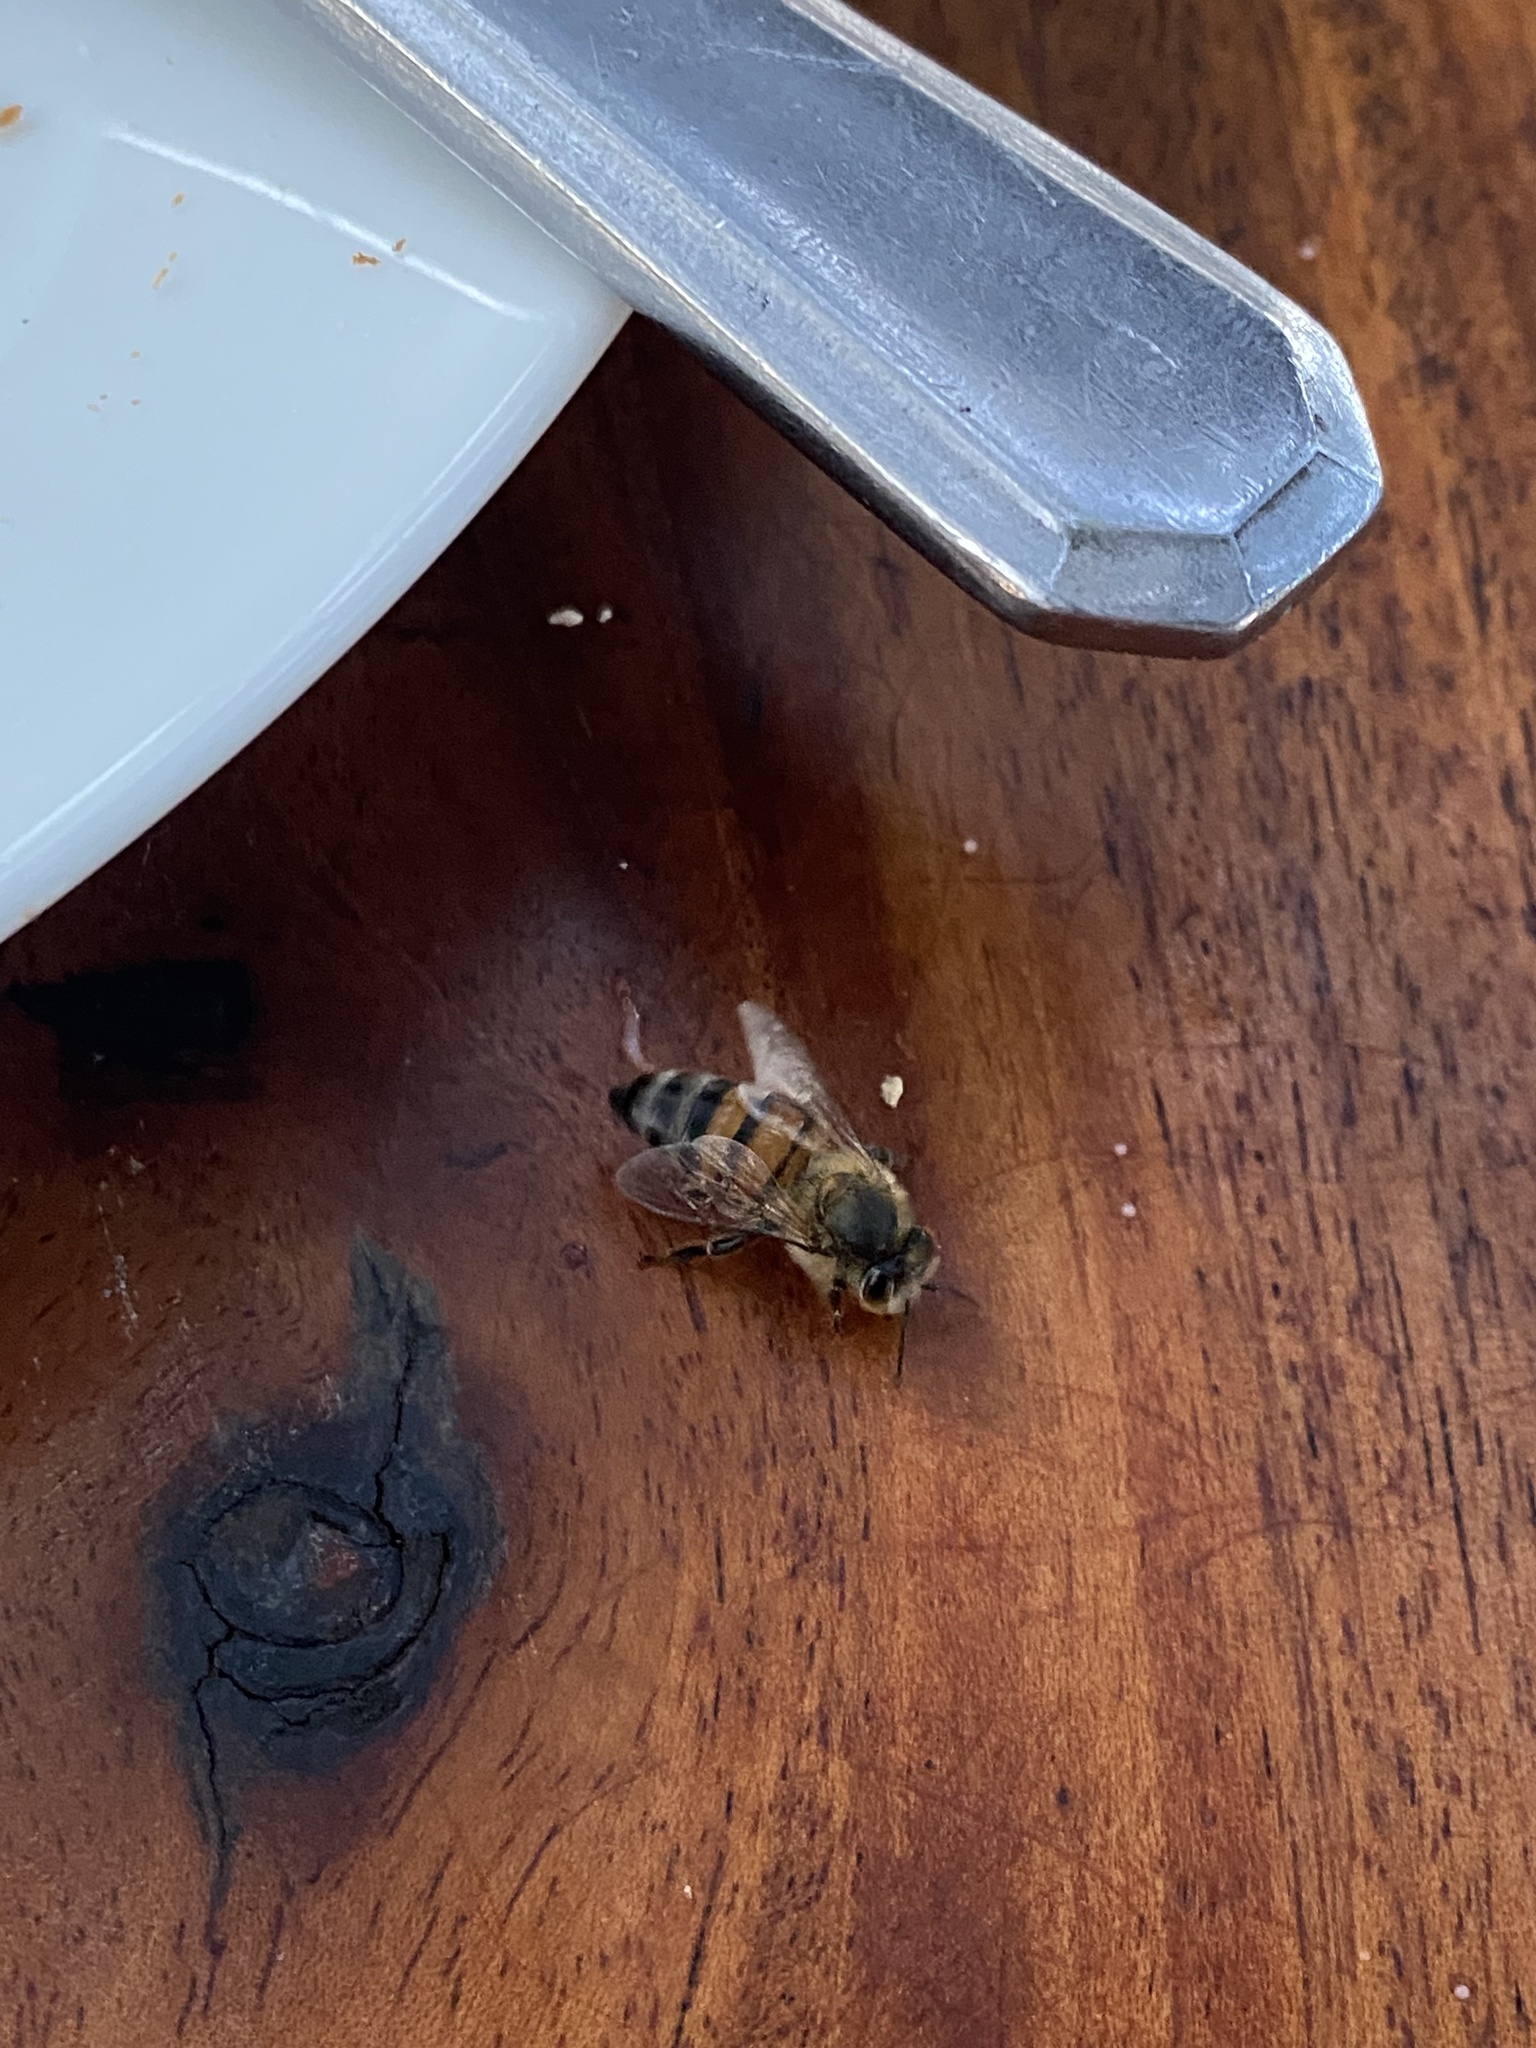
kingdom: Animalia
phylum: Arthropoda
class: Insecta
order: Hymenoptera
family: Apidae
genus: Apis
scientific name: Apis mellifera
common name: Honey bee
